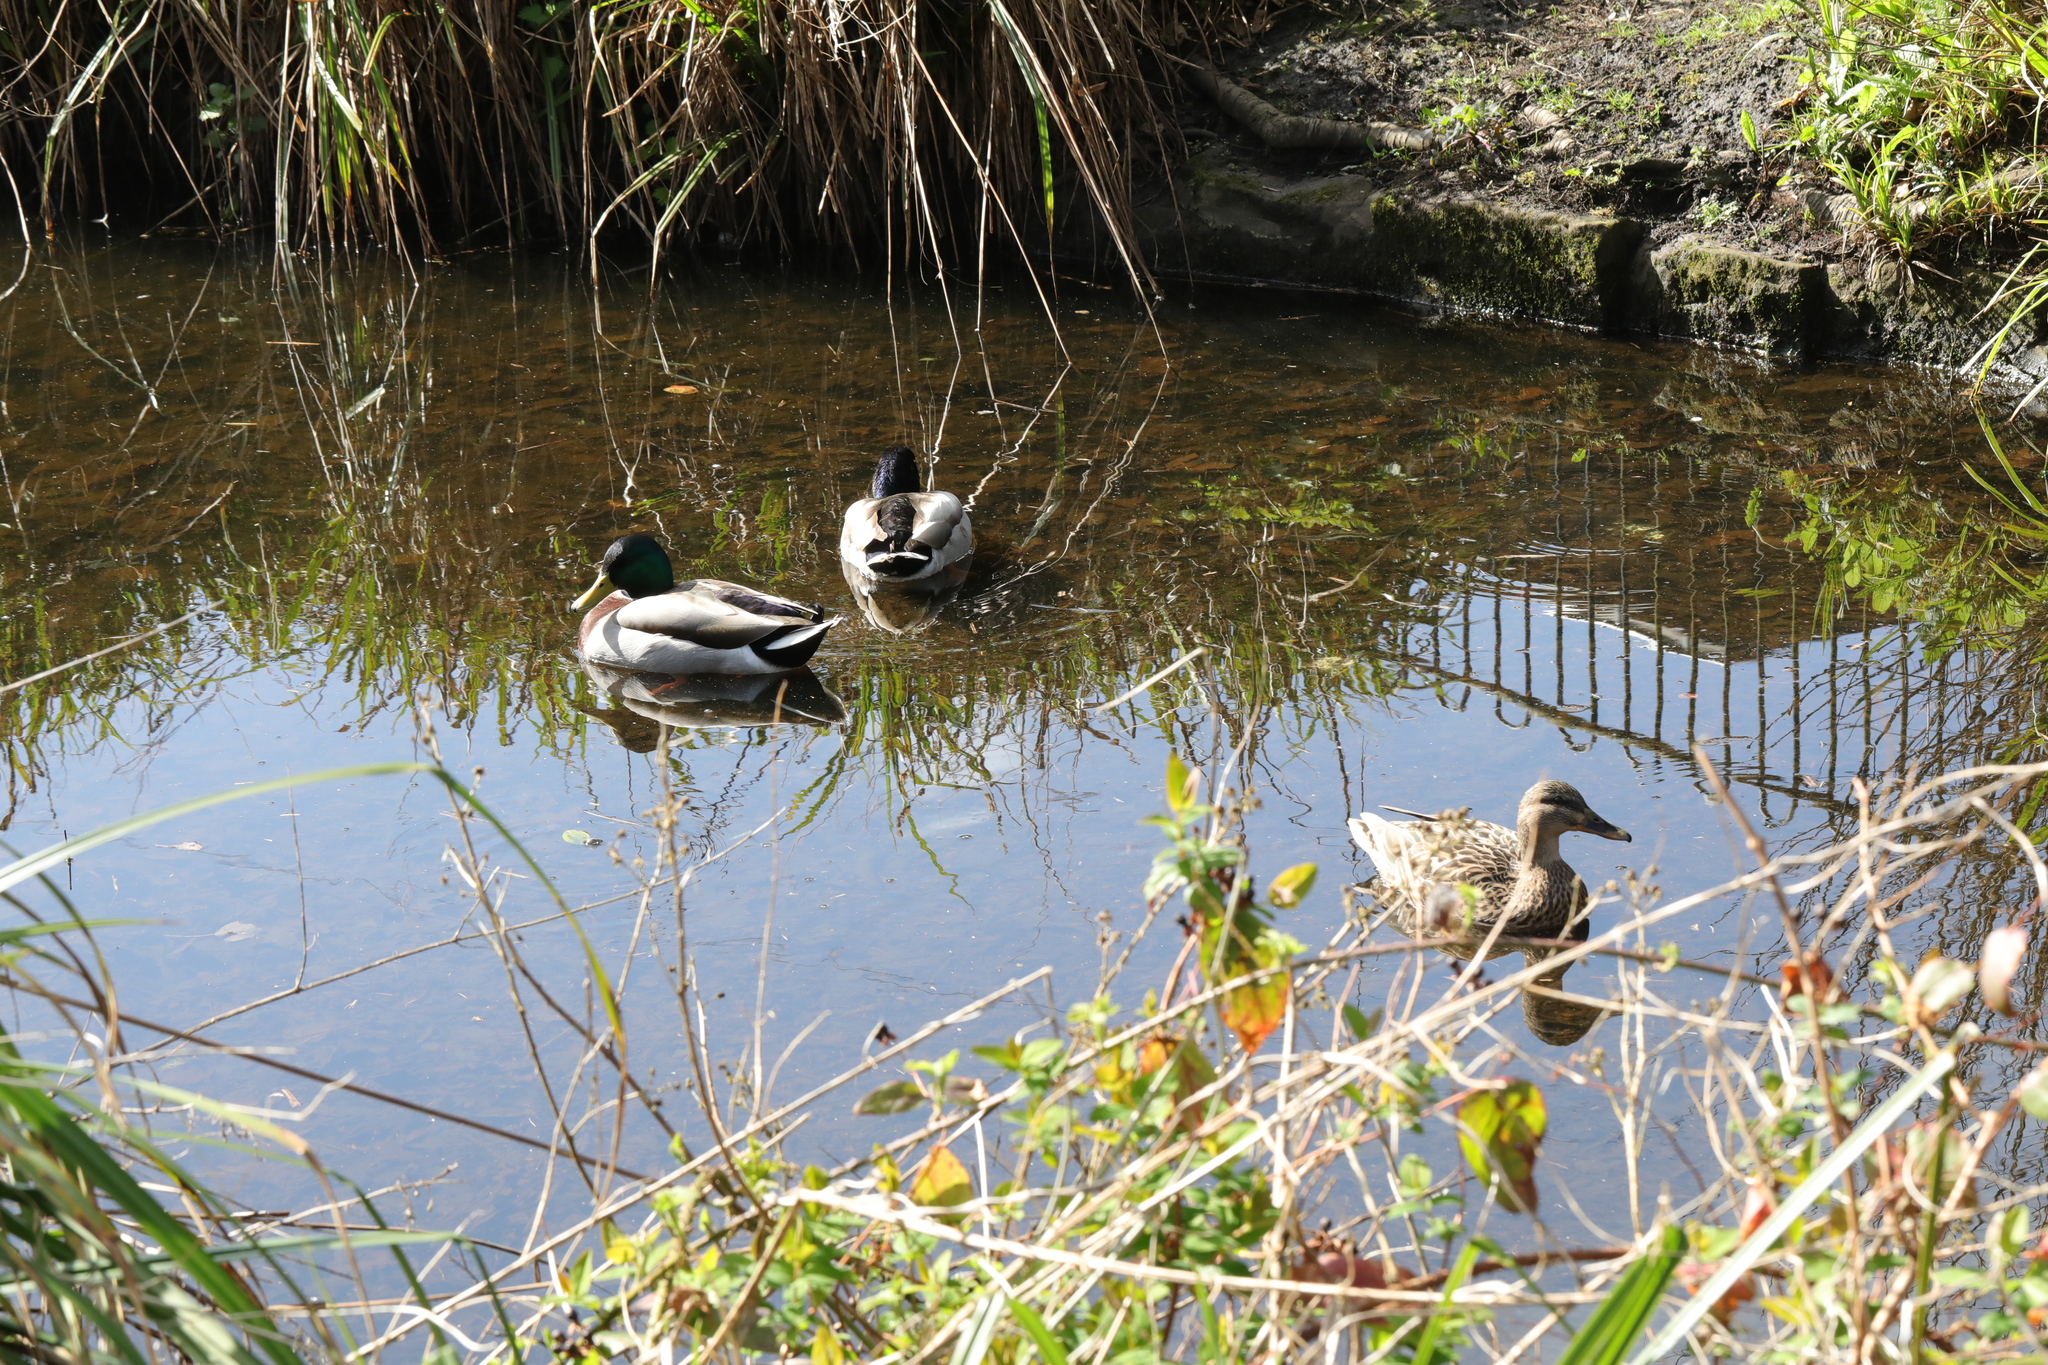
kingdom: Animalia
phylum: Chordata
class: Aves
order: Anseriformes
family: Anatidae
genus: Anas
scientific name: Anas platyrhynchos
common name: Mallard
